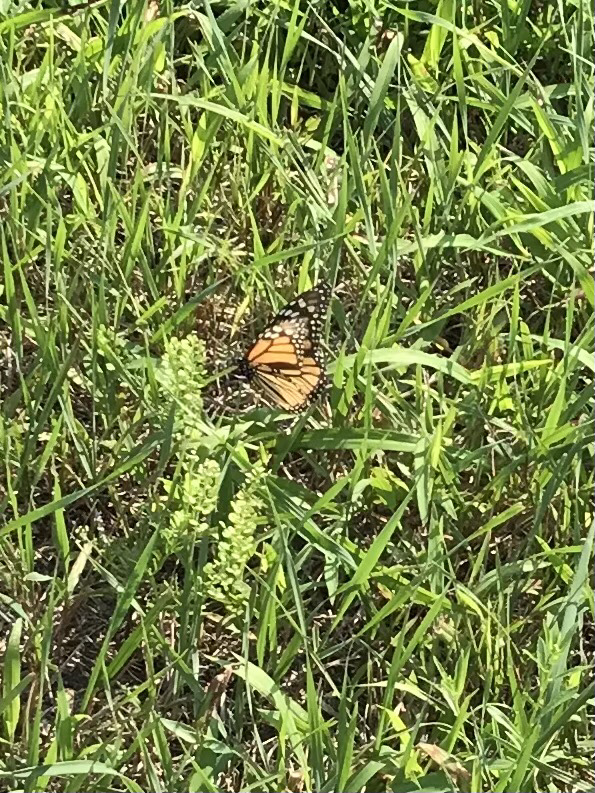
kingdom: Animalia
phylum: Arthropoda
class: Insecta
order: Lepidoptera
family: Nymphalidae
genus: Danaus
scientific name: Danaus plexippus
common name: Monarch
